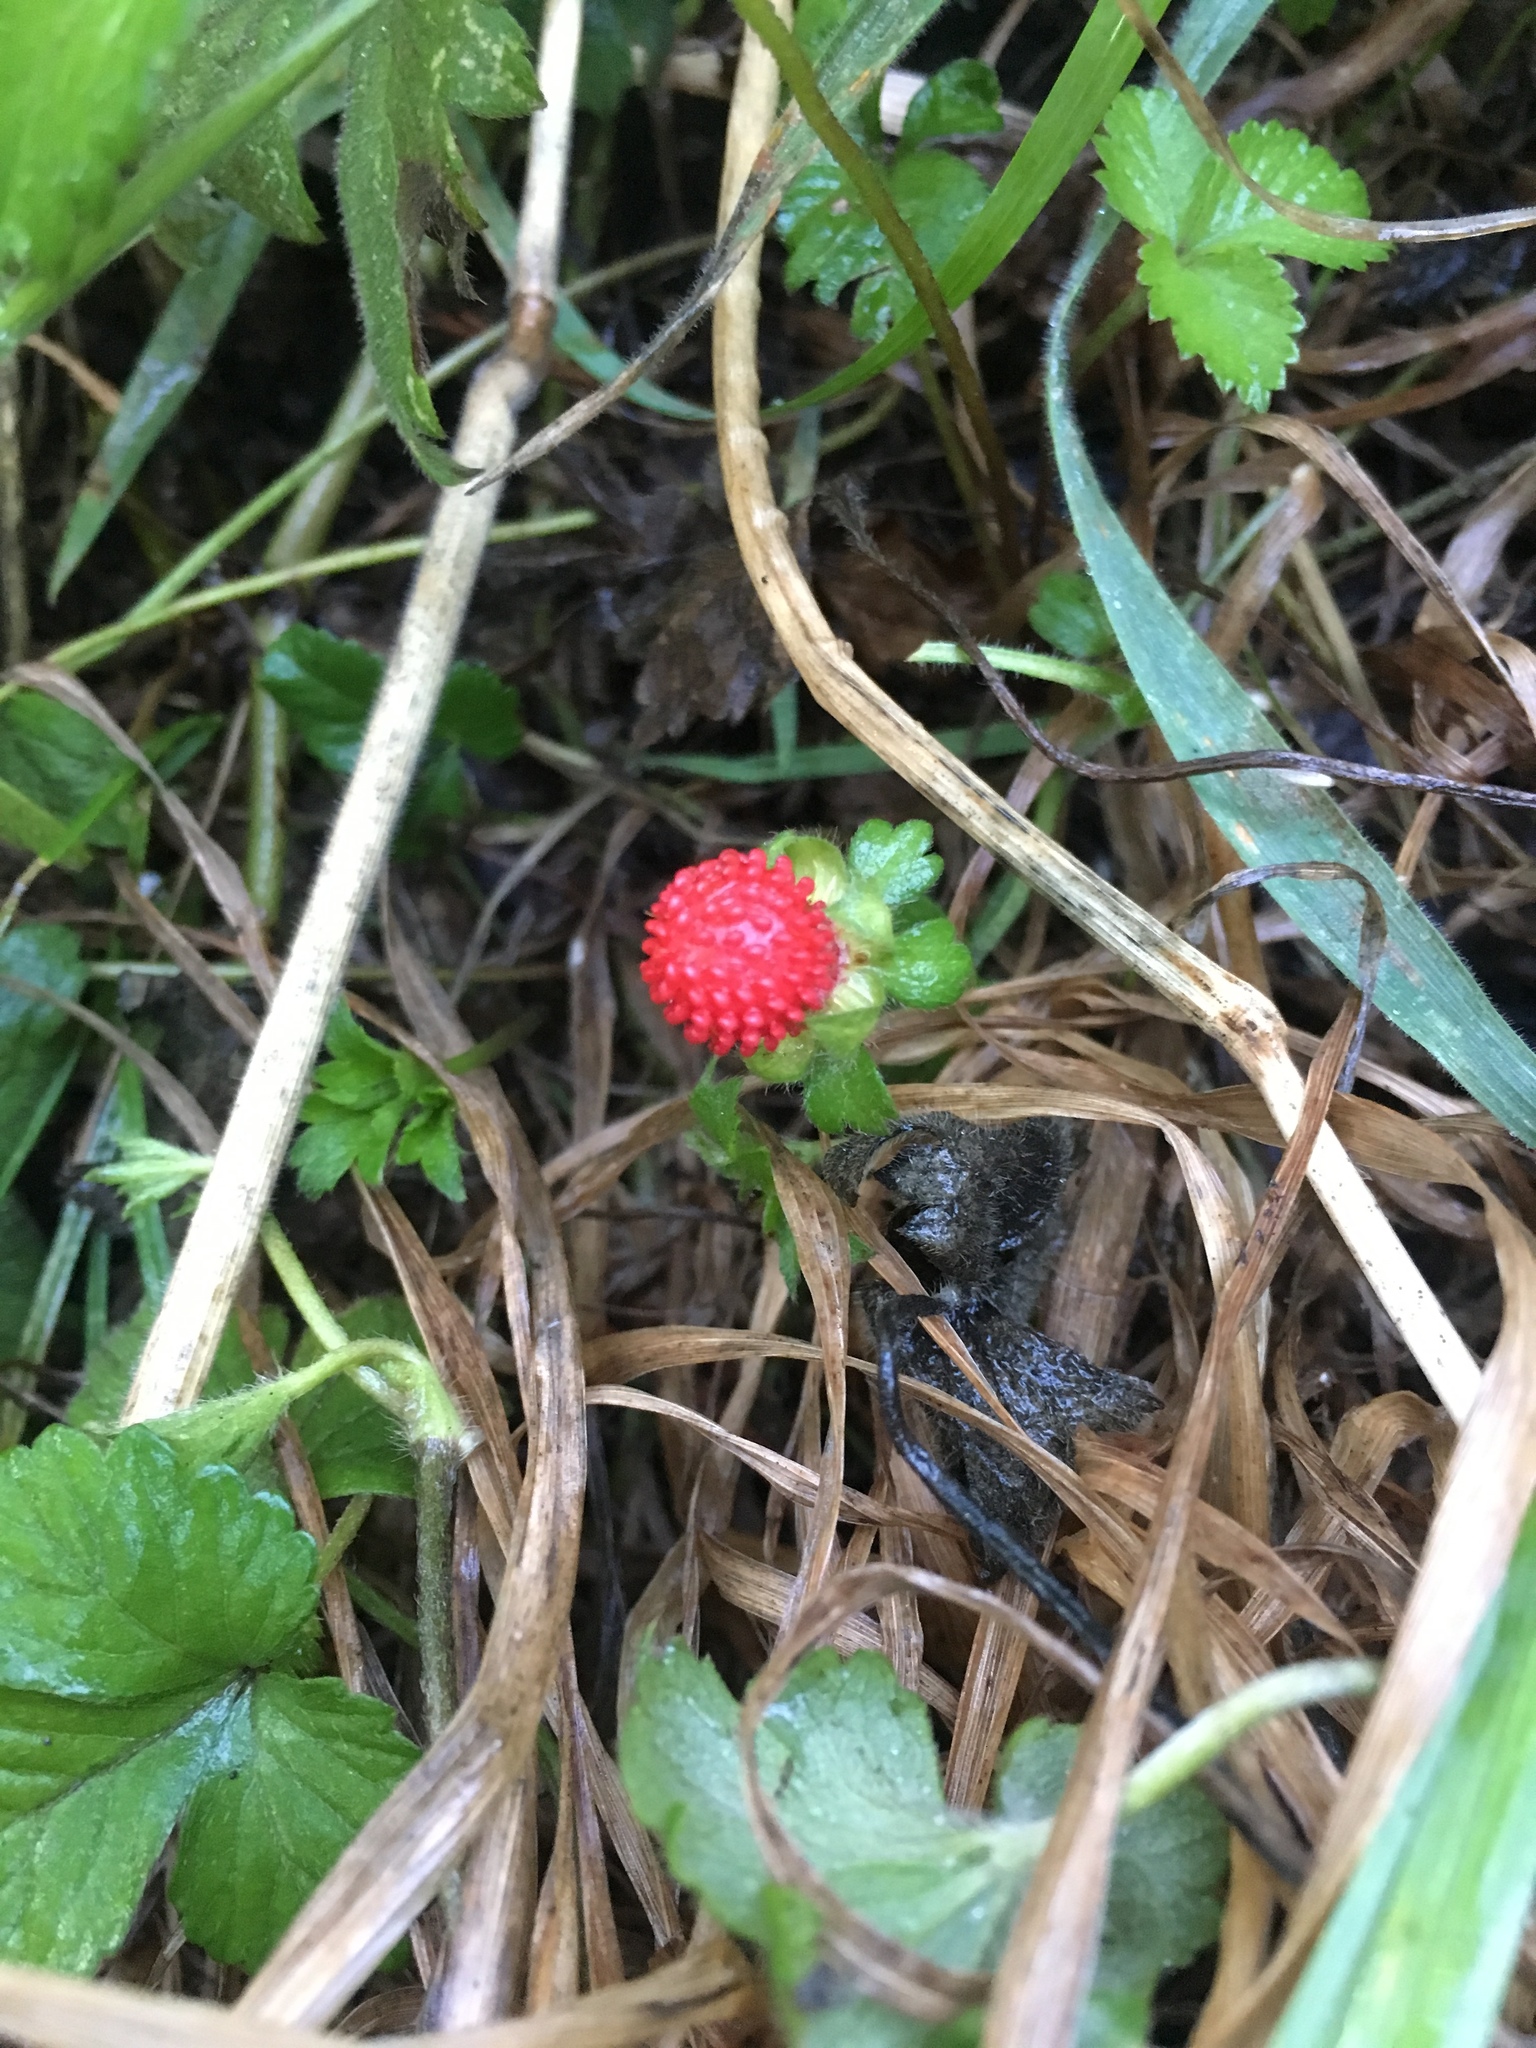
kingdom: Plantae
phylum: Tracheophyta
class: Magnoliopsida
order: Rosales
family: Rosaceae
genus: Potentilla
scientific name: Potentilla indica
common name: Yellow-flowered strawberry
